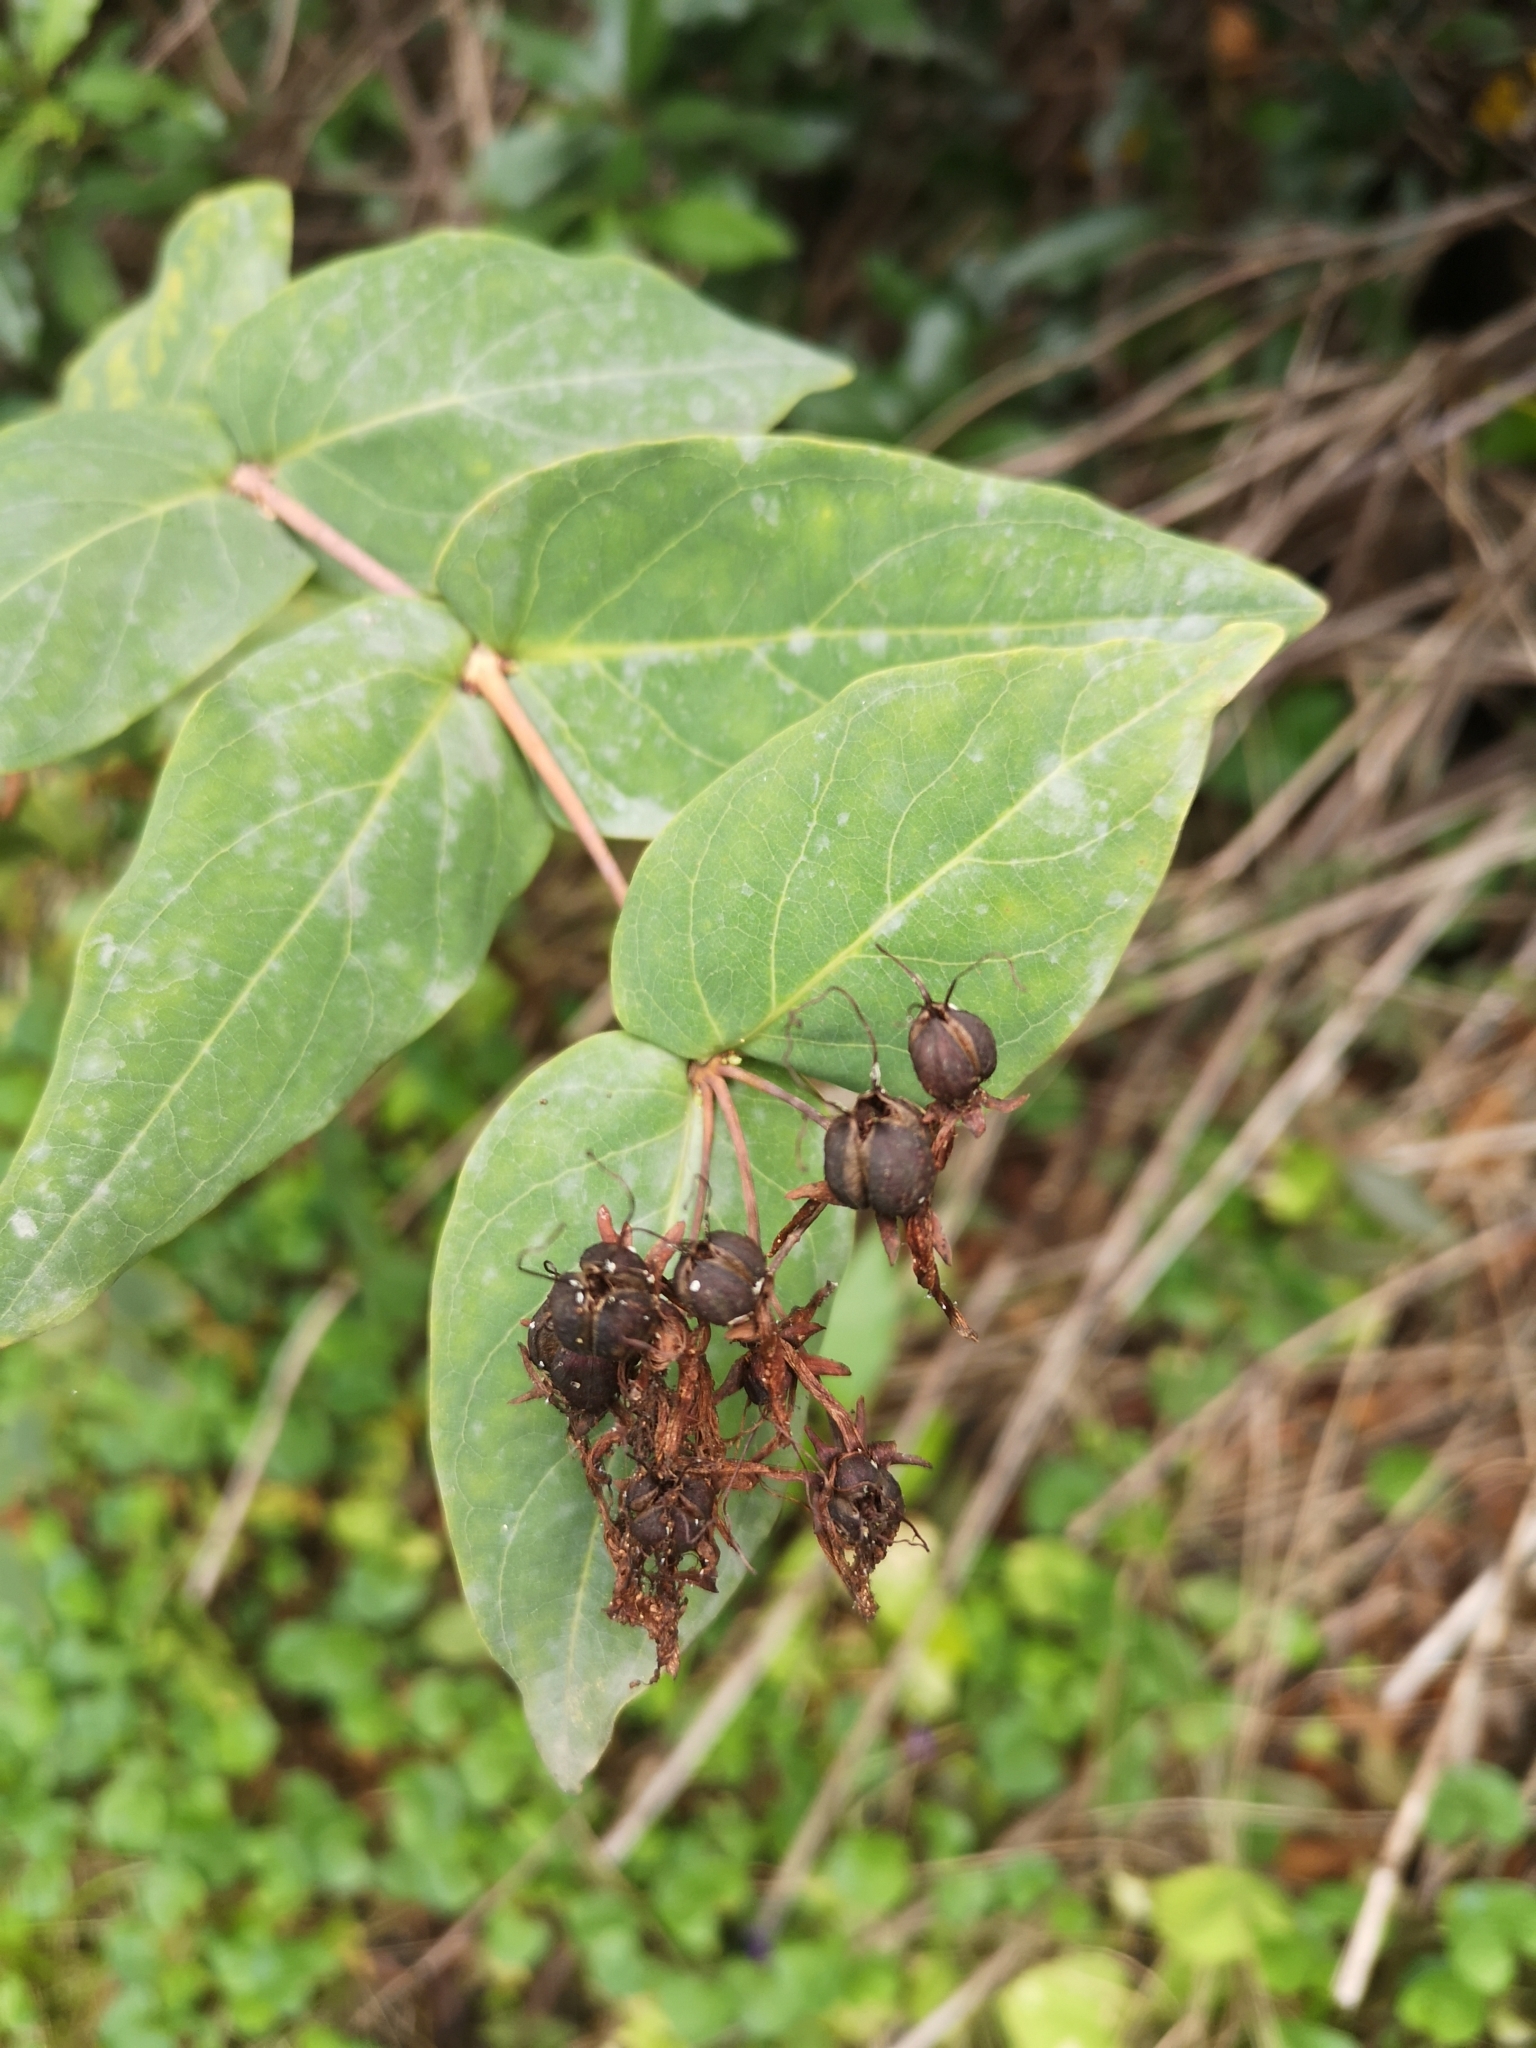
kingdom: Plantae
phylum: Tracheophyta
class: Magnoliopsida
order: Malpighiales
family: Hypericaceae
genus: Hypericum
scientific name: Hypericum grandifolium
